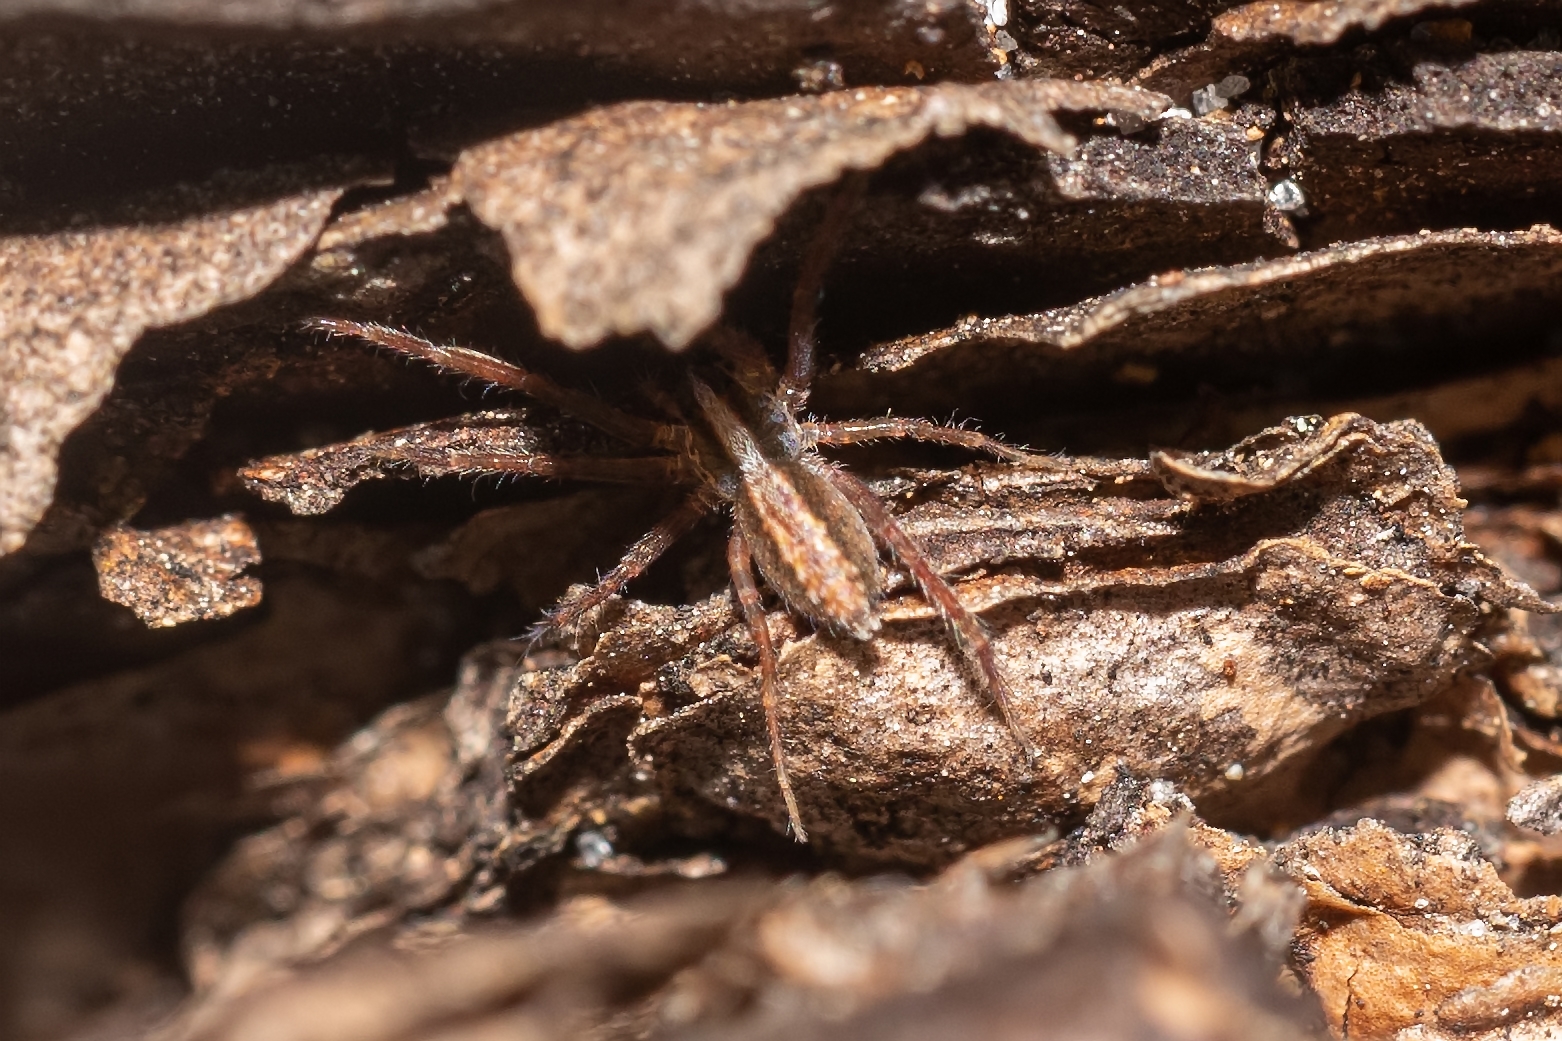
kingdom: Animalia
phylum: Arthropoda
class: Arachnida
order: Araneae
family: Lycosidae
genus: Rabidosa
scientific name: Rabidosa hentzi
